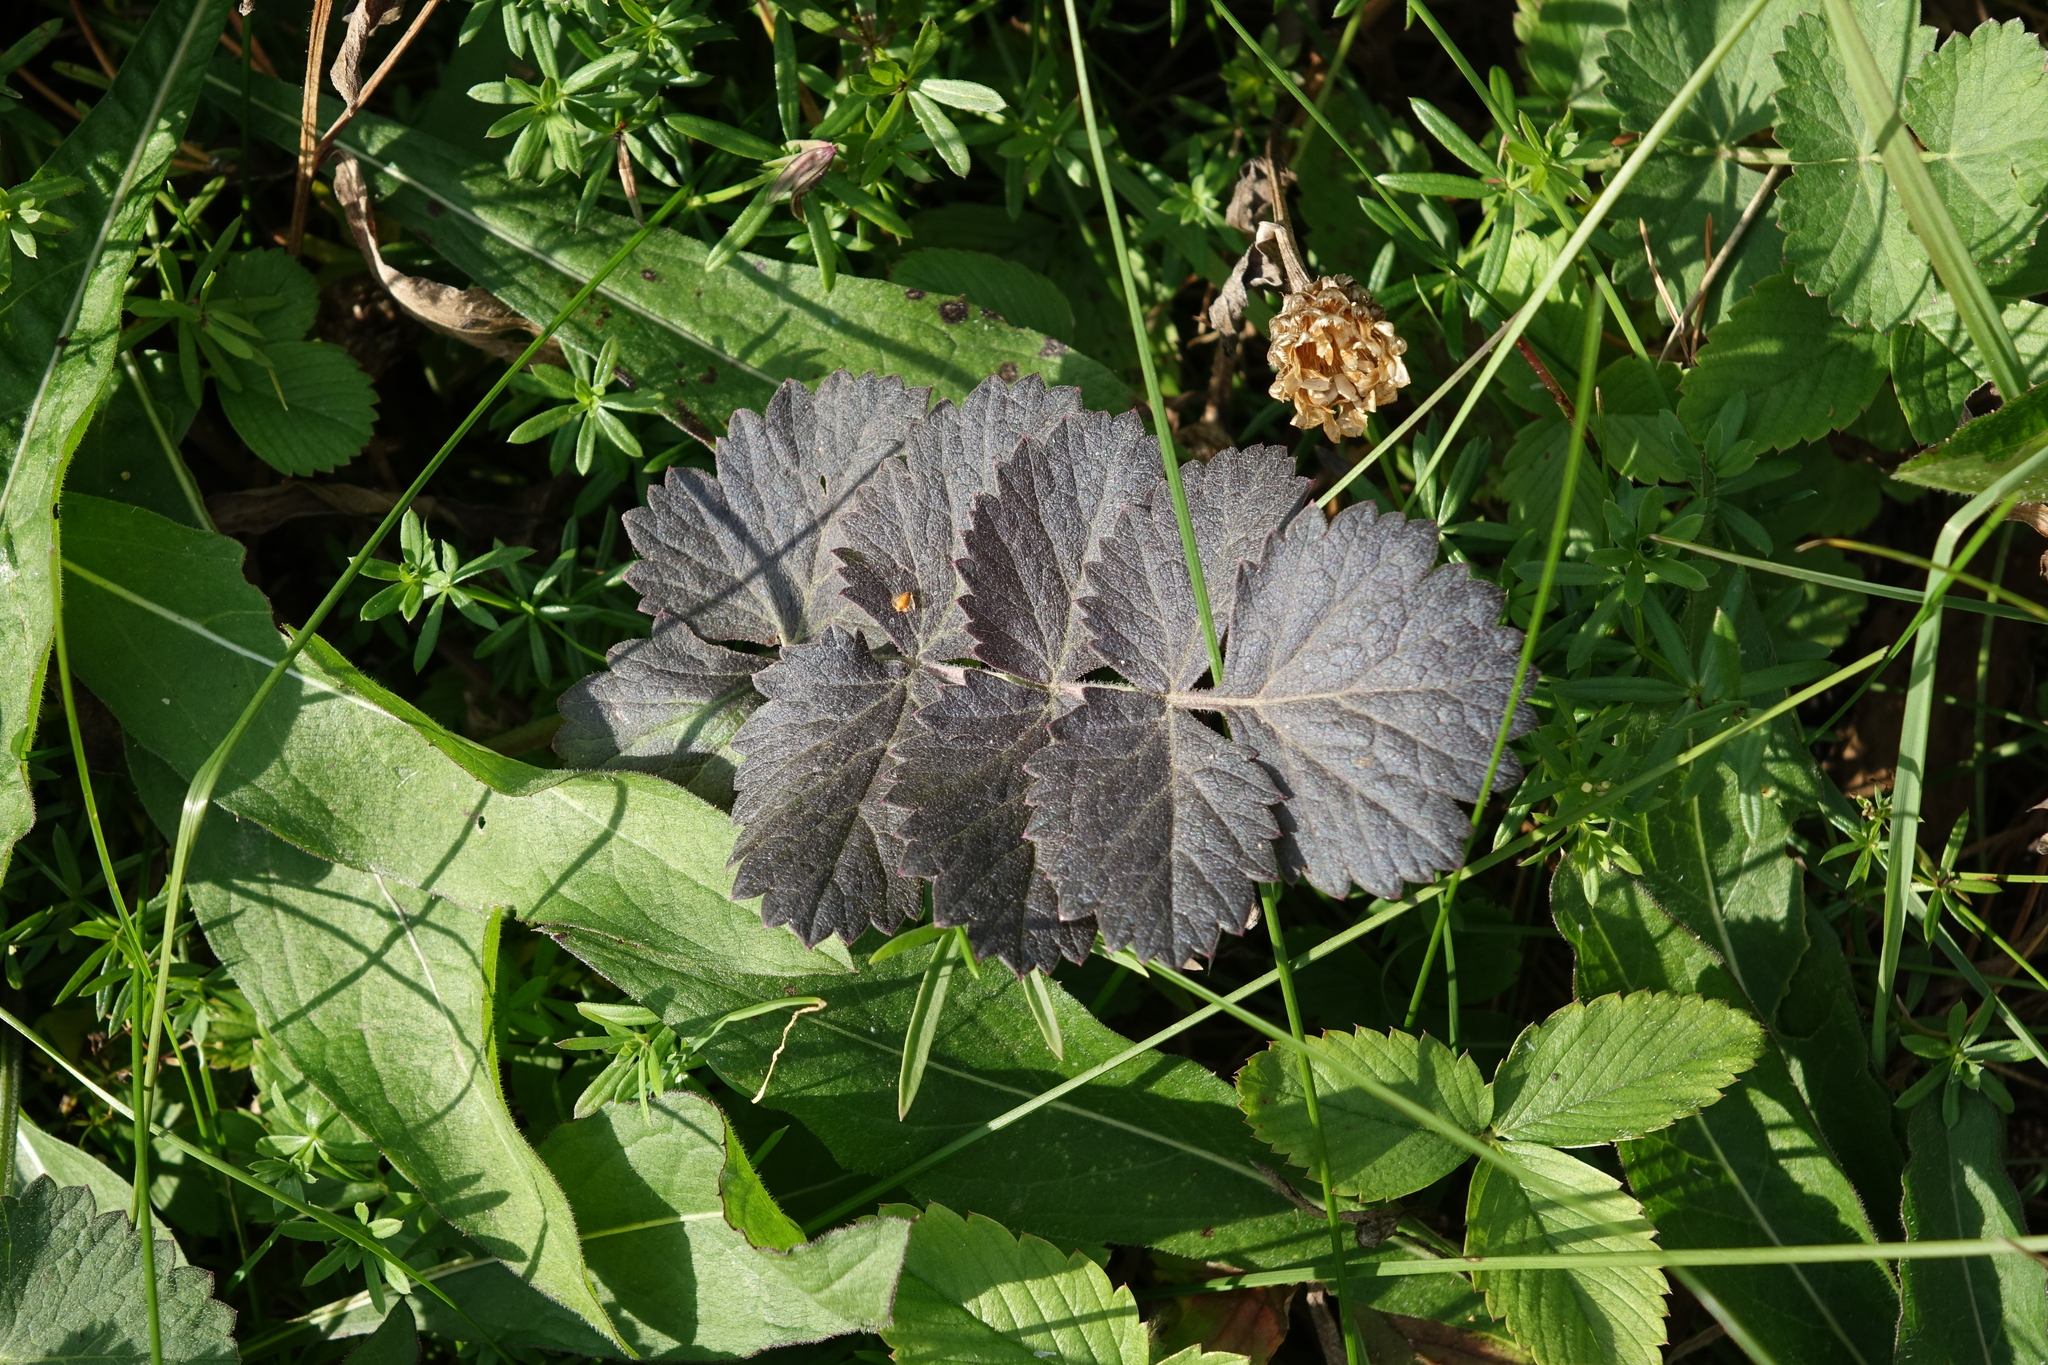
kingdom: Plantae
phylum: Tracheophyta
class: Magnoliopsida
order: Apiales
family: Apiaceae
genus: Pimpinella
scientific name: Pimpinella saxifraga
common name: Burnet-saxifrage
